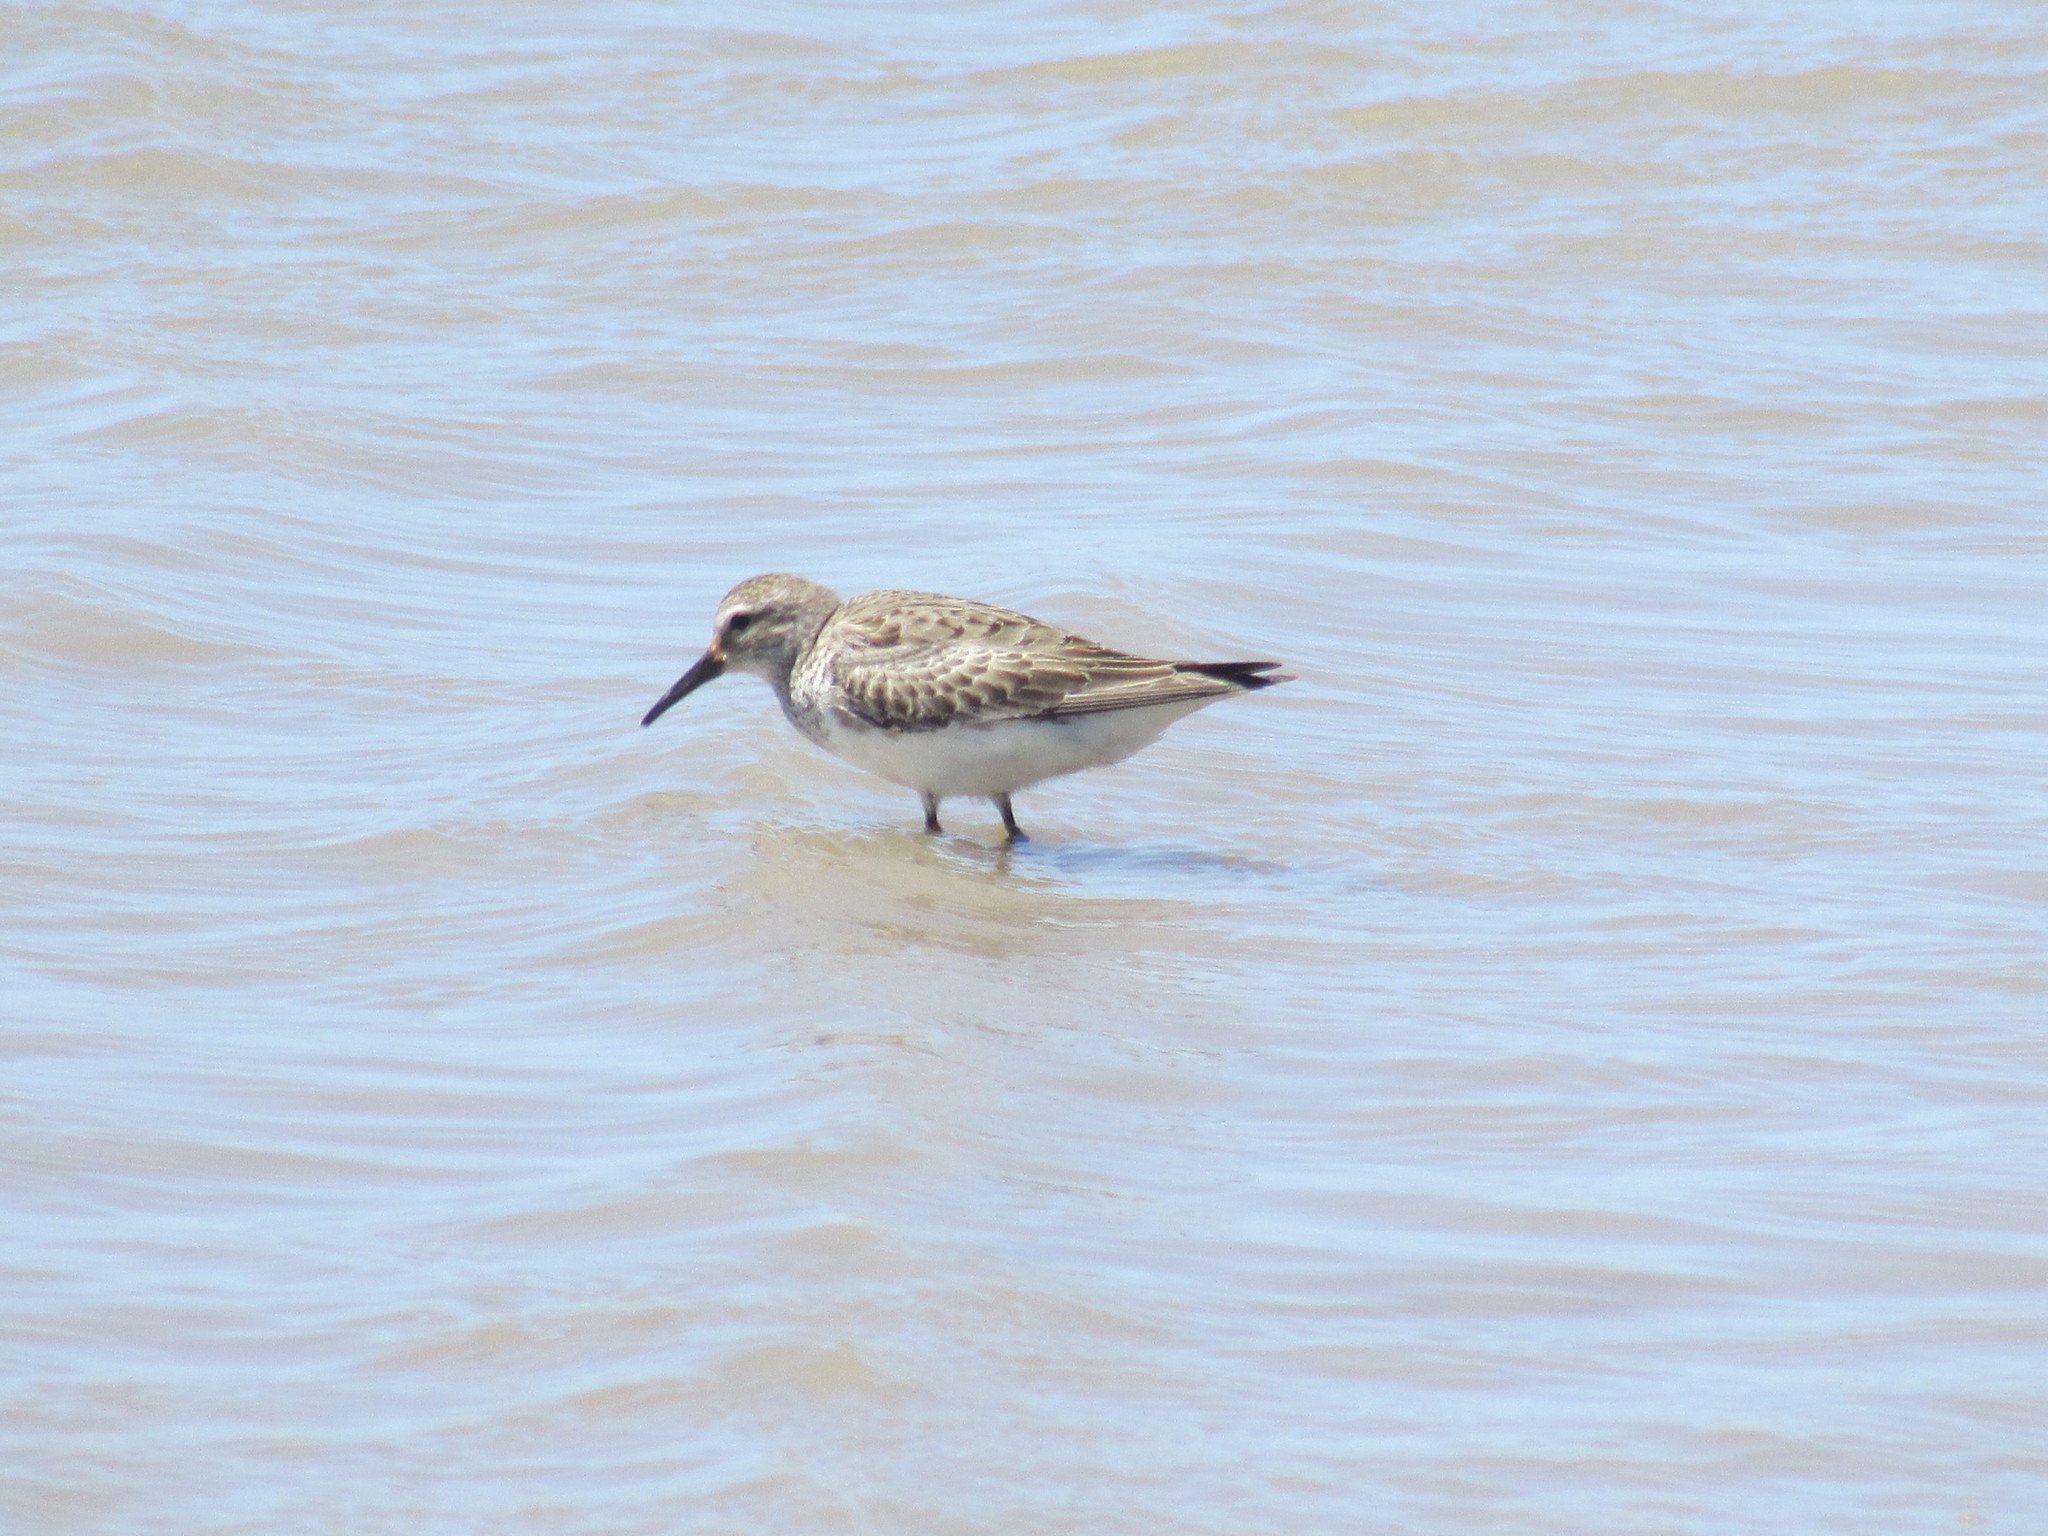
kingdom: Animalia
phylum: Chordata
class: Aves
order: Charadriiformes
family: Scolopacidae
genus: Calidris
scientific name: Calidris fuscicollis
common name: White-rumped sandpiper
